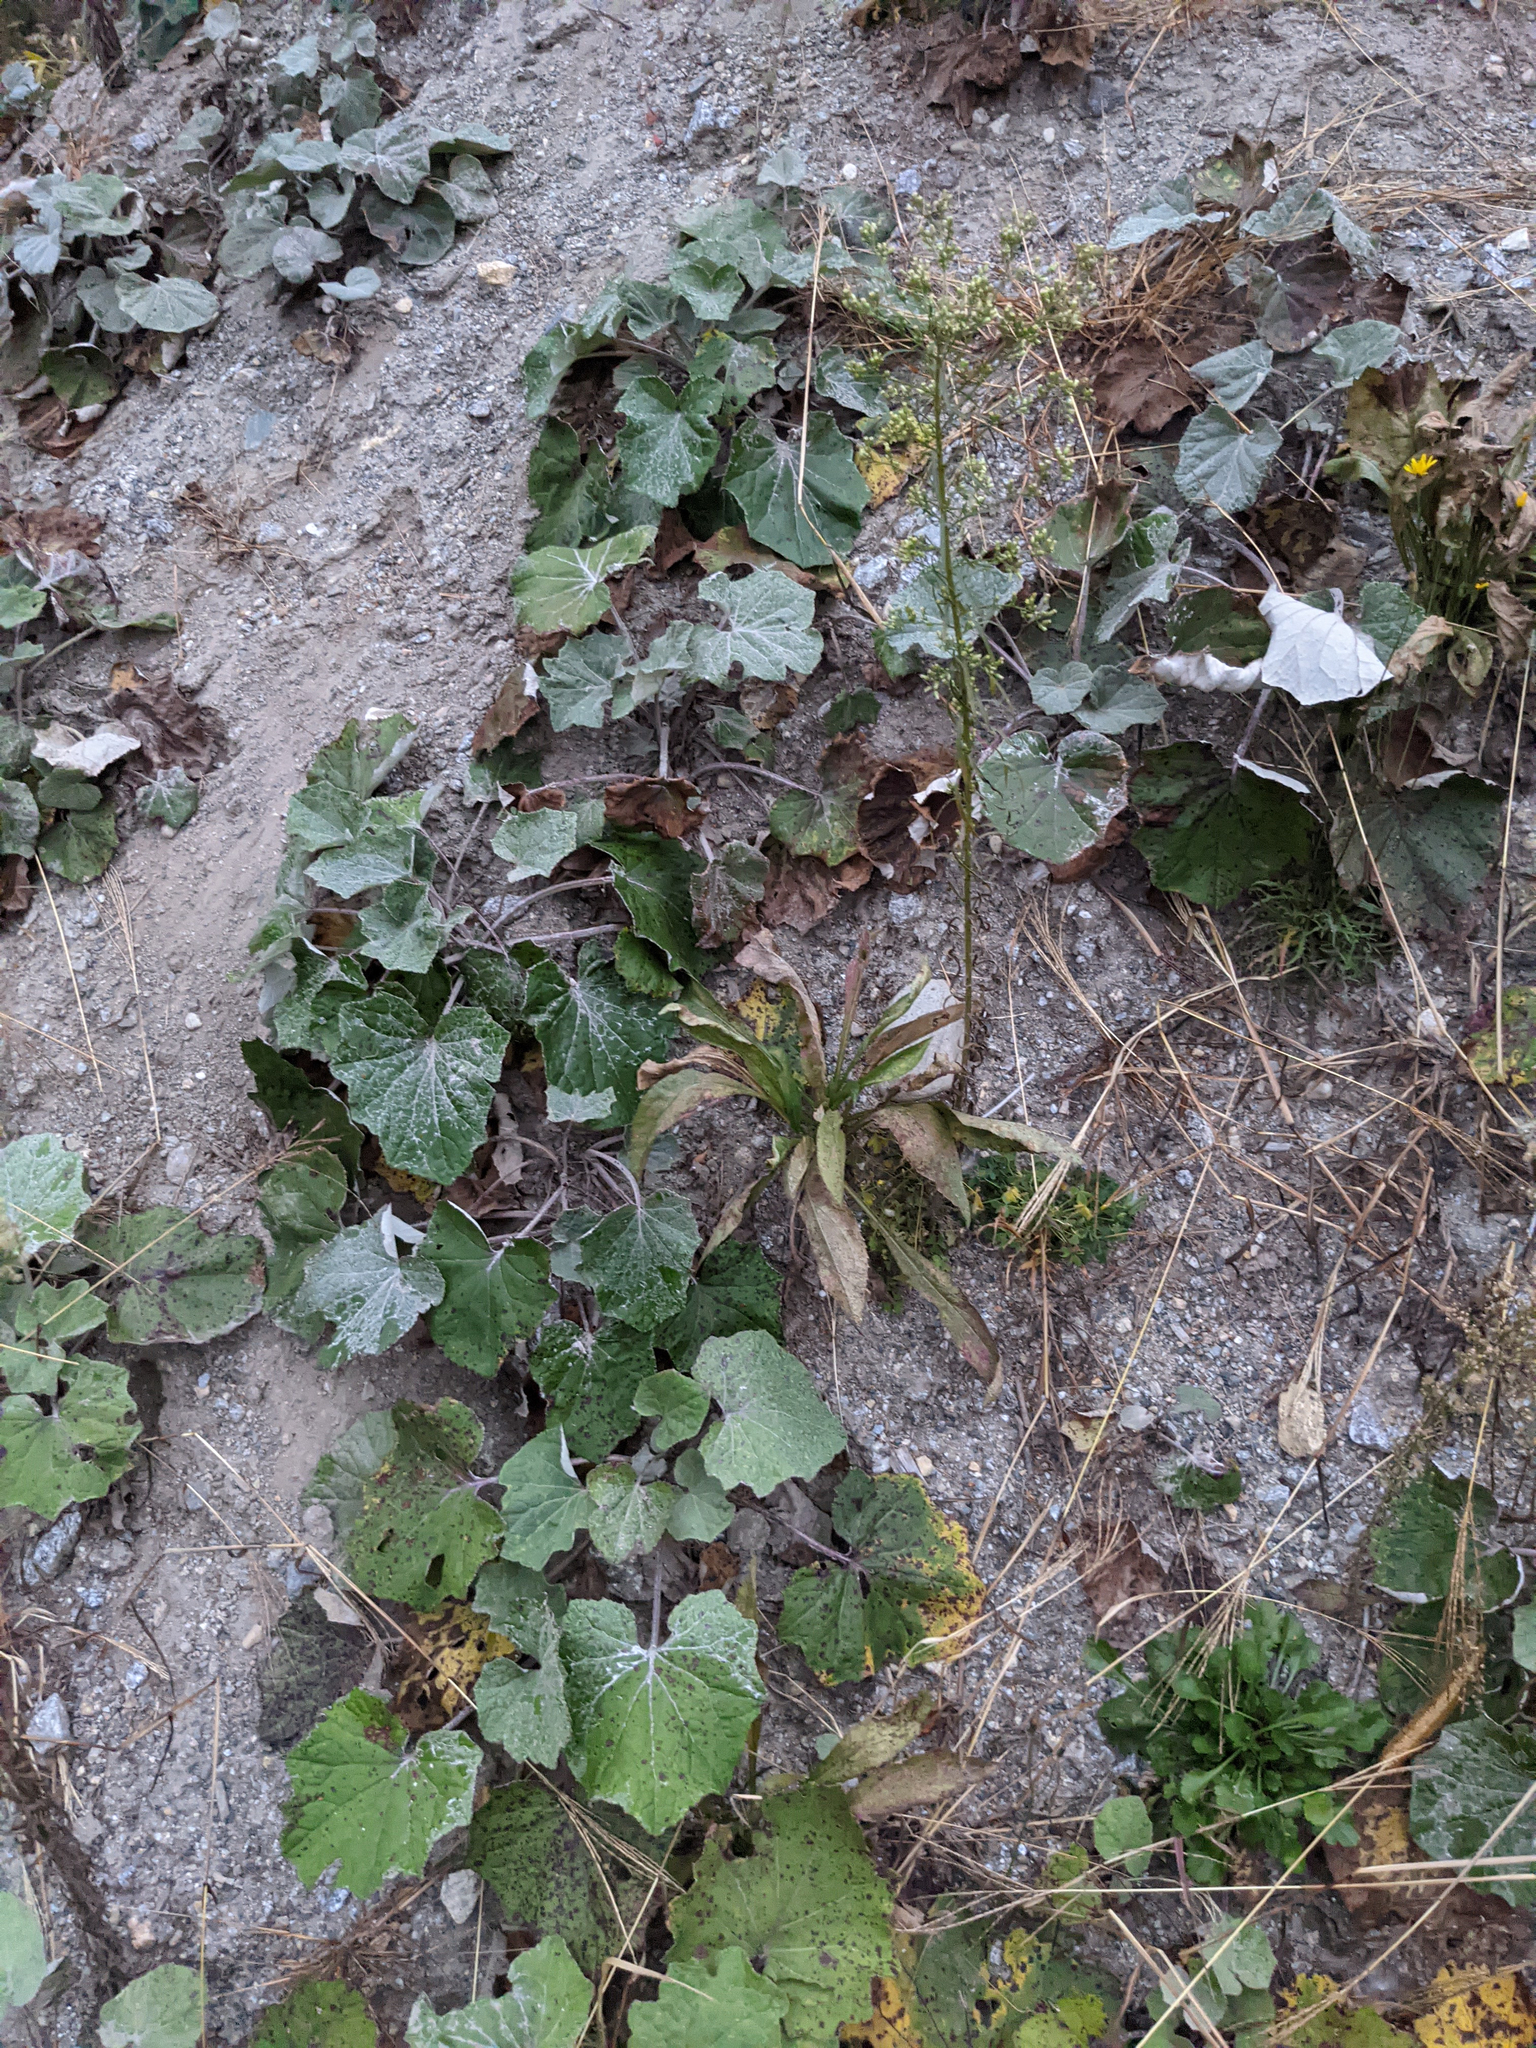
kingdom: Plantae
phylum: Tracheophyta
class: Magnoliopsida
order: Asterales
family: Asteraceae
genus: Tussilago
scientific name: Tussilago farfara
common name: Coltsfoot
